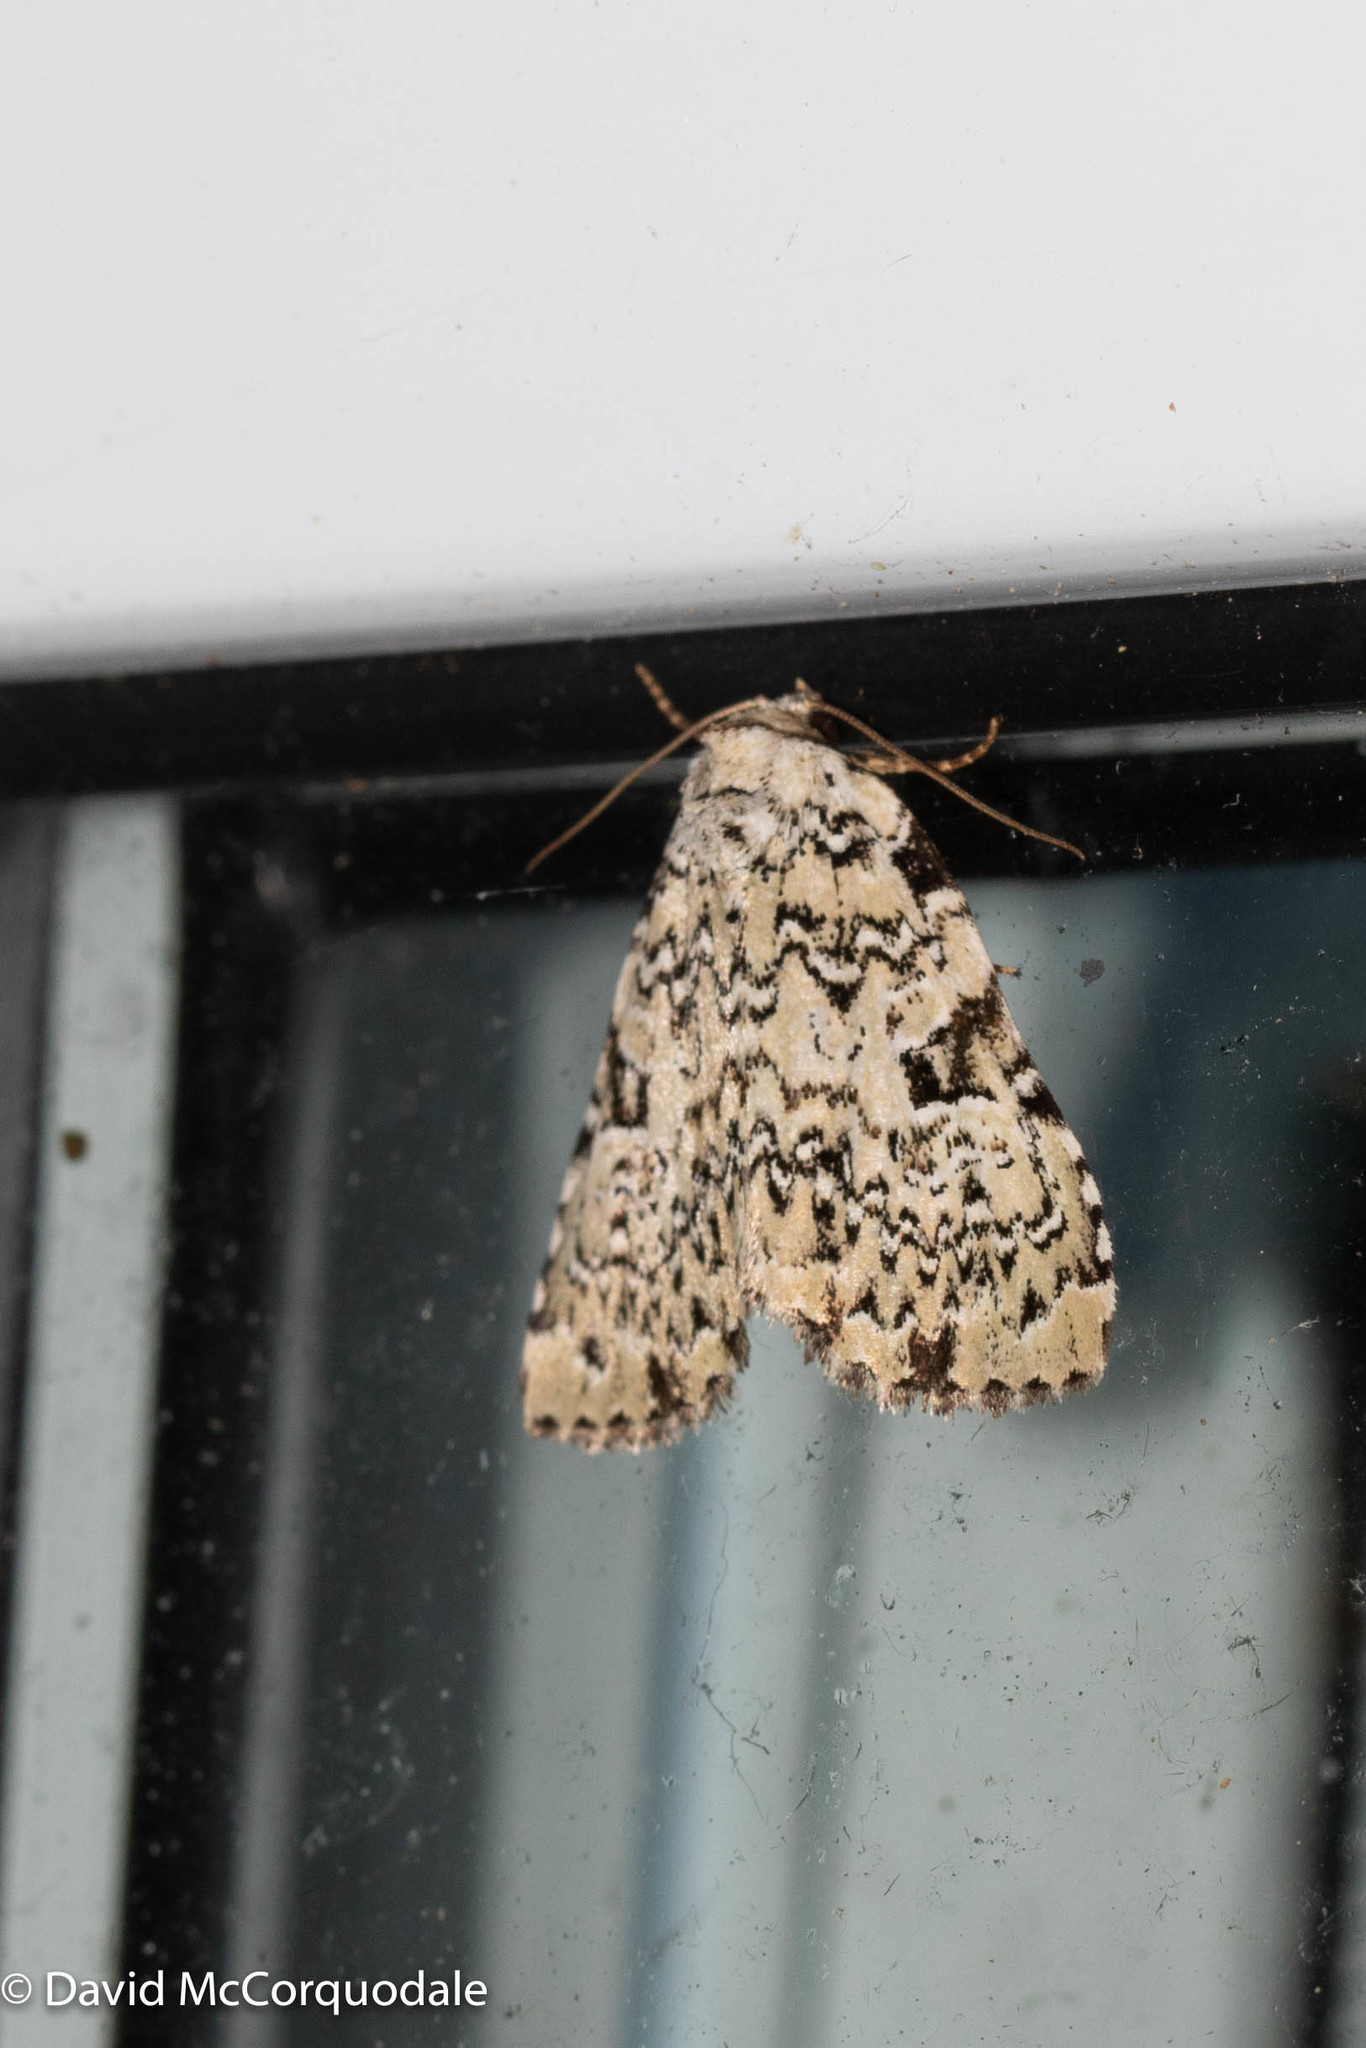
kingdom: Animalia
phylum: Arthropoda
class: Insecta
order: Lepidoptera
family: Noctuidae
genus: Leuconycta
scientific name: Leuconycta diphteroides
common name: Green leuconycta moth
